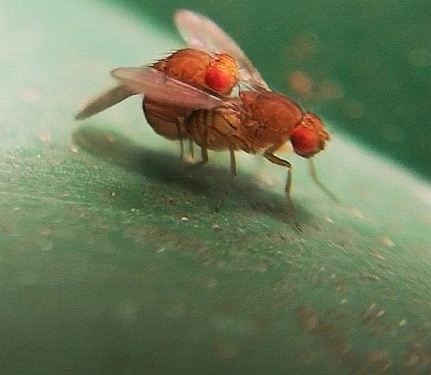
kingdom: Animalia
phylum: Arthropoda
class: Insecta
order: Diptera
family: Drosophilidae
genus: Drosophila
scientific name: Drosophila immigrans
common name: Pomace fly
